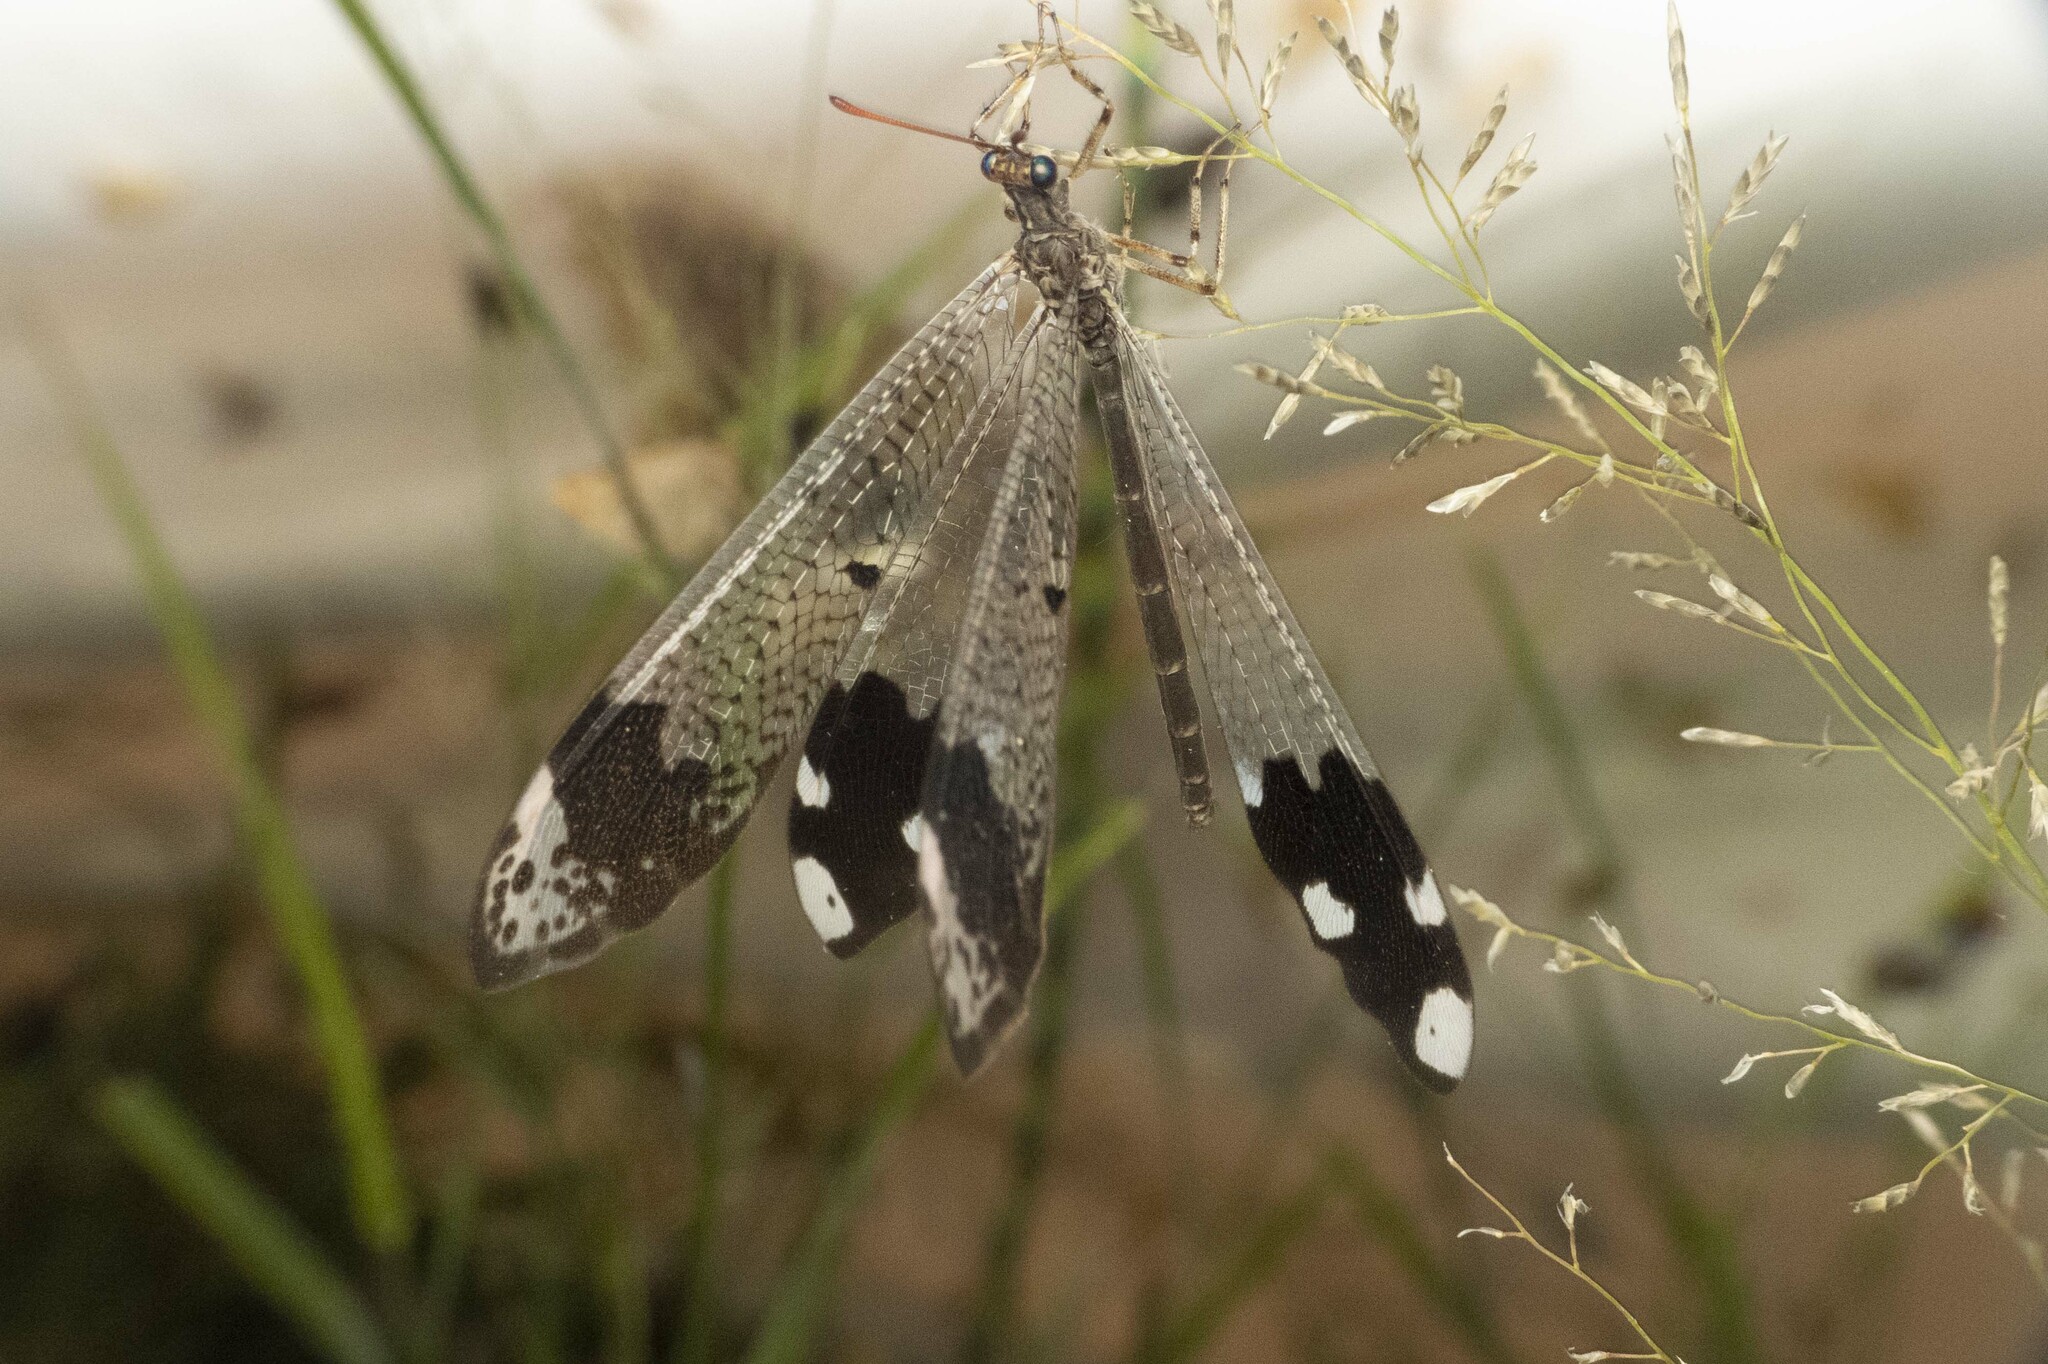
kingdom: Animalia
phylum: Arthropoda
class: Insecta
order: Neuroptera
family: Myrmeleontidae
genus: Glenurus
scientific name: Glenurus luniger
